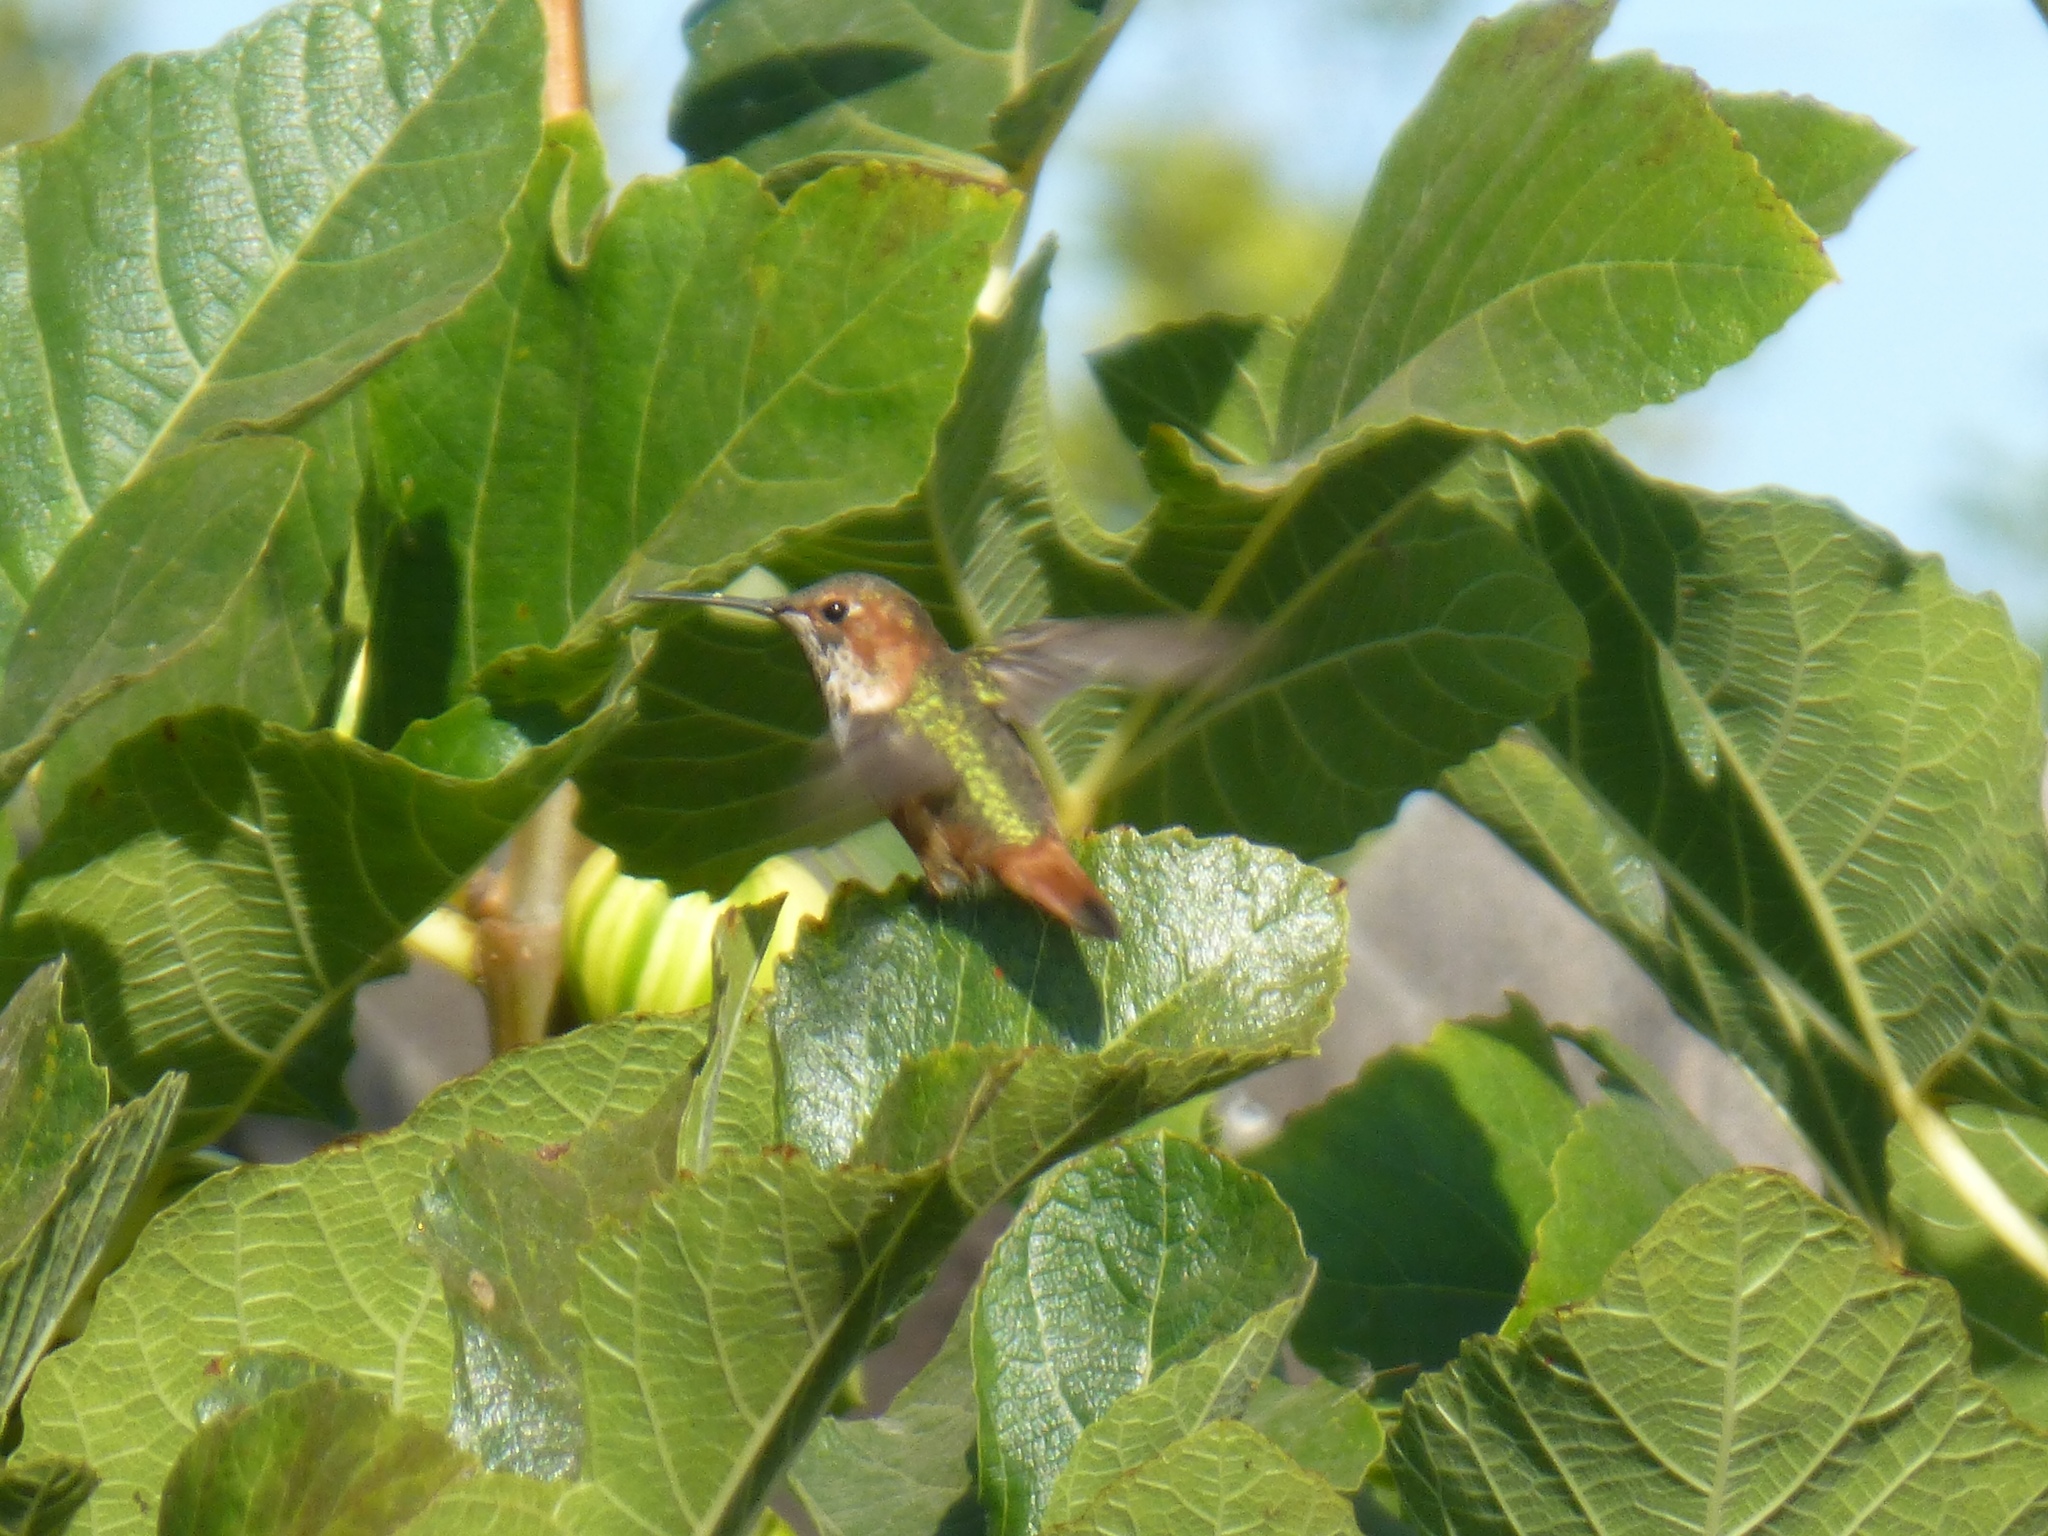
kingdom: Animalia
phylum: Chordata
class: Aves
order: Apodiformes
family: Trochilidae
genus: Selasphorus
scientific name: Selasphorus sasin
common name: Allen's hummingbird
